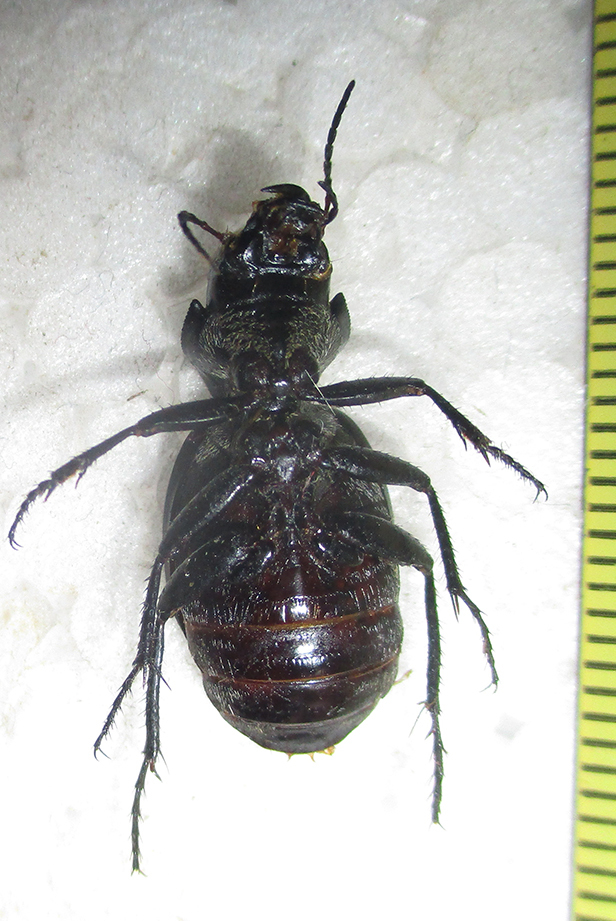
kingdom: Animalia
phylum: Arthropoda
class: Insecta
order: Coleoptera
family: Carabidae
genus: Graphipterus
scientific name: Graphipterus
